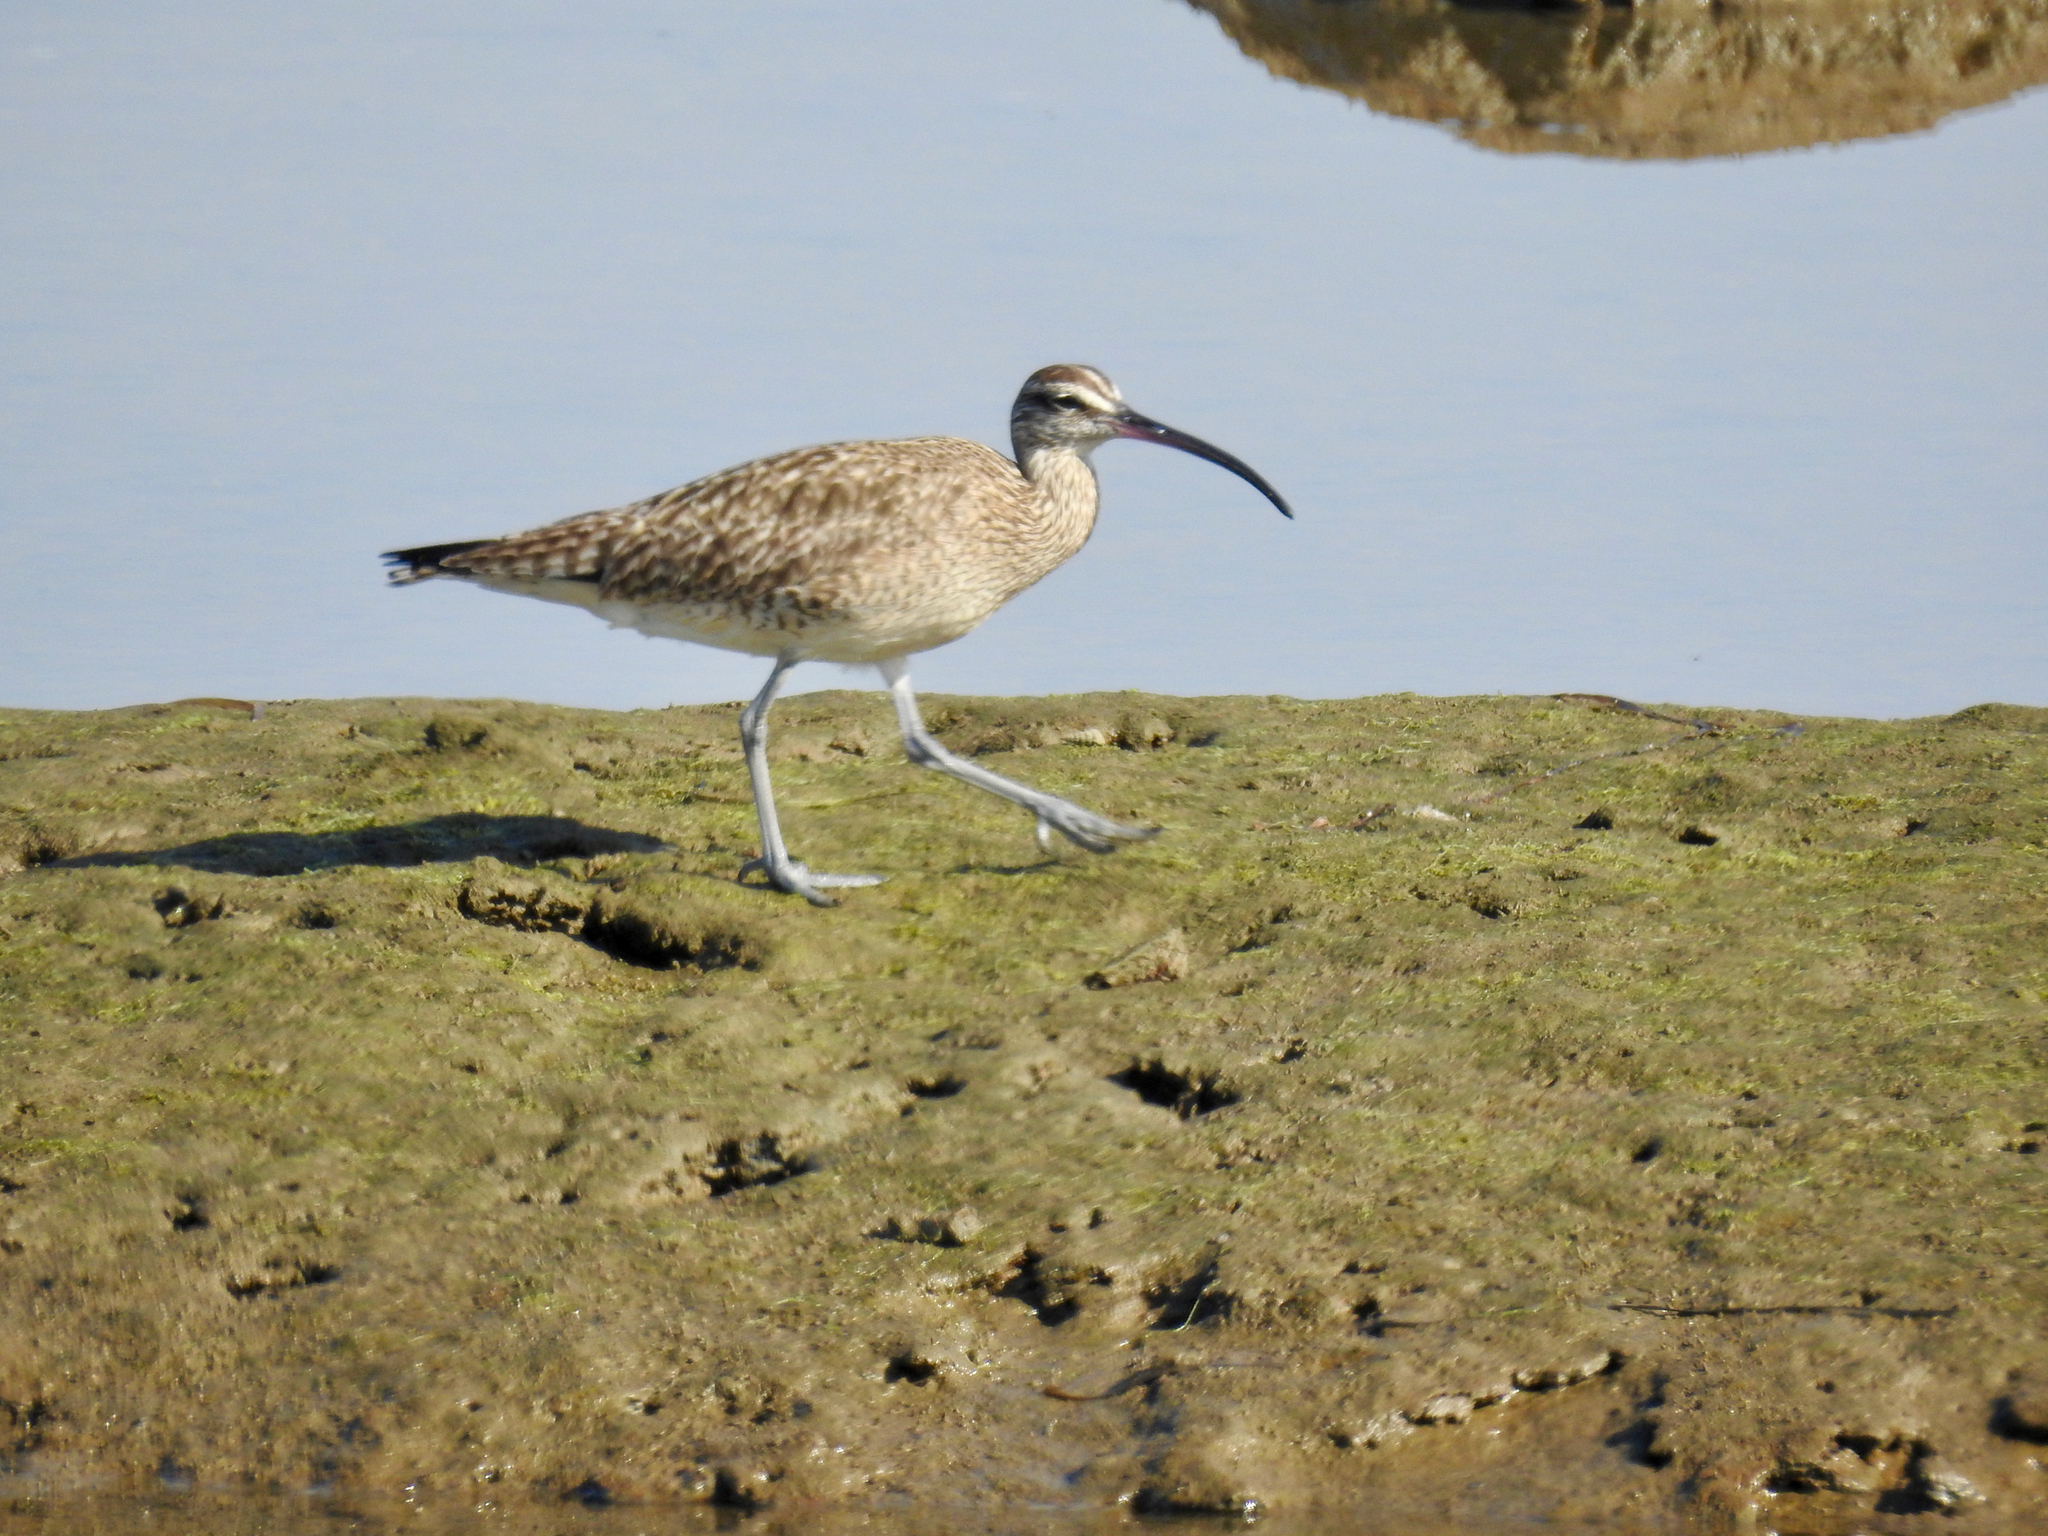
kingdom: Animalia
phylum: Chordata
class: Aves
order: Charadriiformes
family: Scolopacidae
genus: Numenius
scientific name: Numenius phaeopus
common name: Whimbrel
